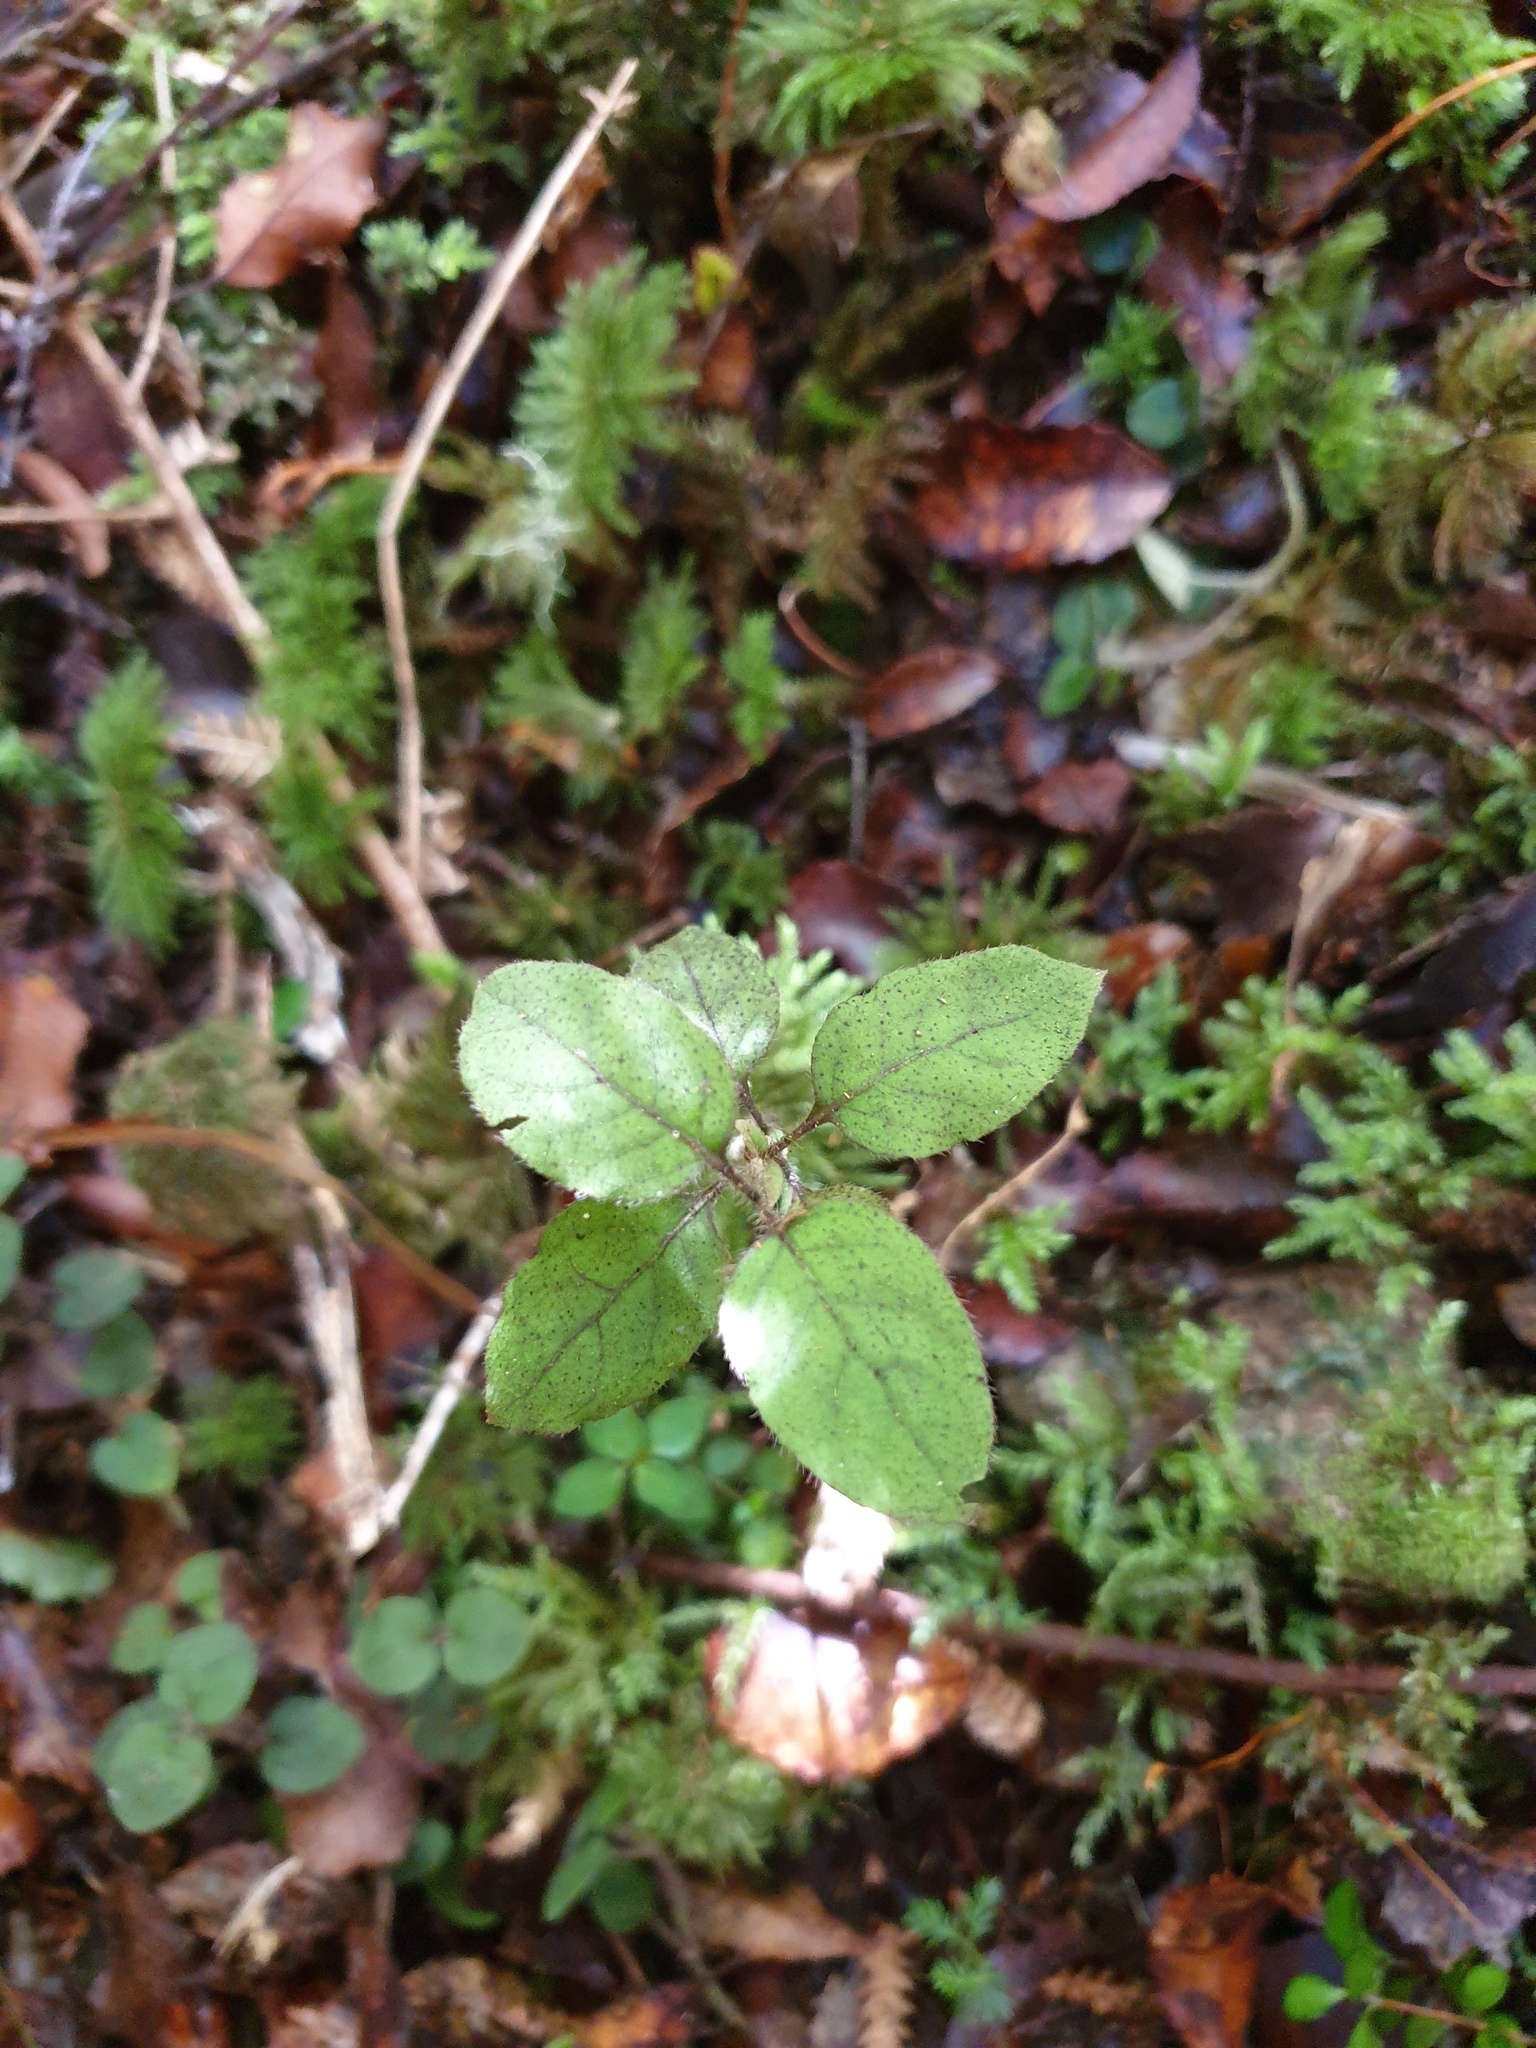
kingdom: Plantae
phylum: Tracheophyta
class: Magnoliopsida
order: Gentianales
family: Rubiaceae
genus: Coprosma
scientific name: Coprosma rotundifolia
